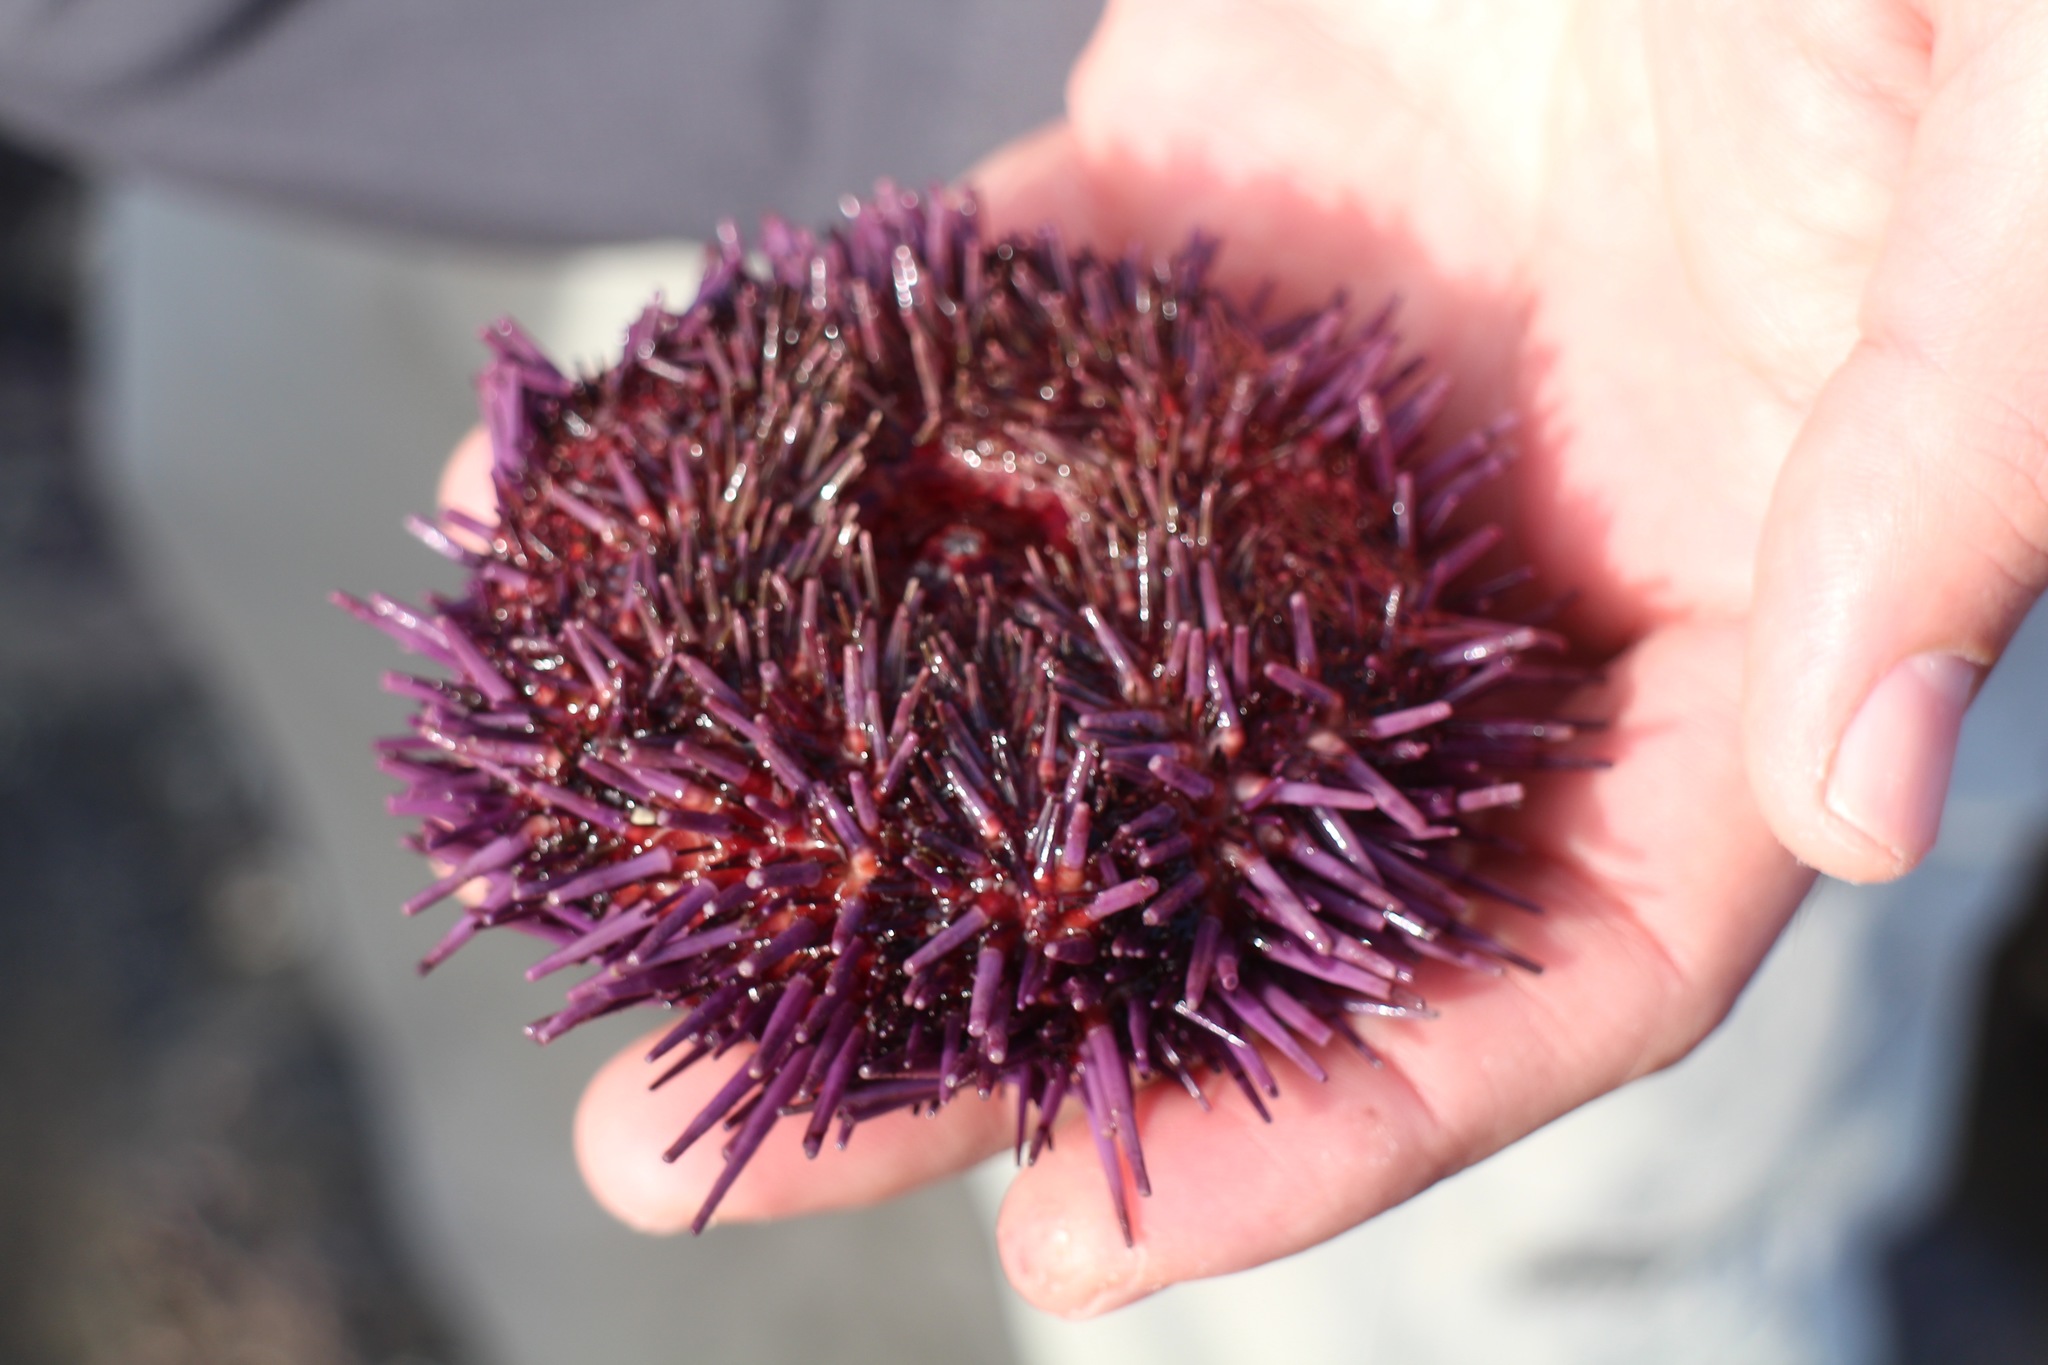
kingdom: Animalia
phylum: Echinodermata
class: Echinoidea
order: Camarodonta
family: Strongylocentrotidae
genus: Strongylocentrotus
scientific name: Strongylocentrotus purpuratus
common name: Purple sea urchin
